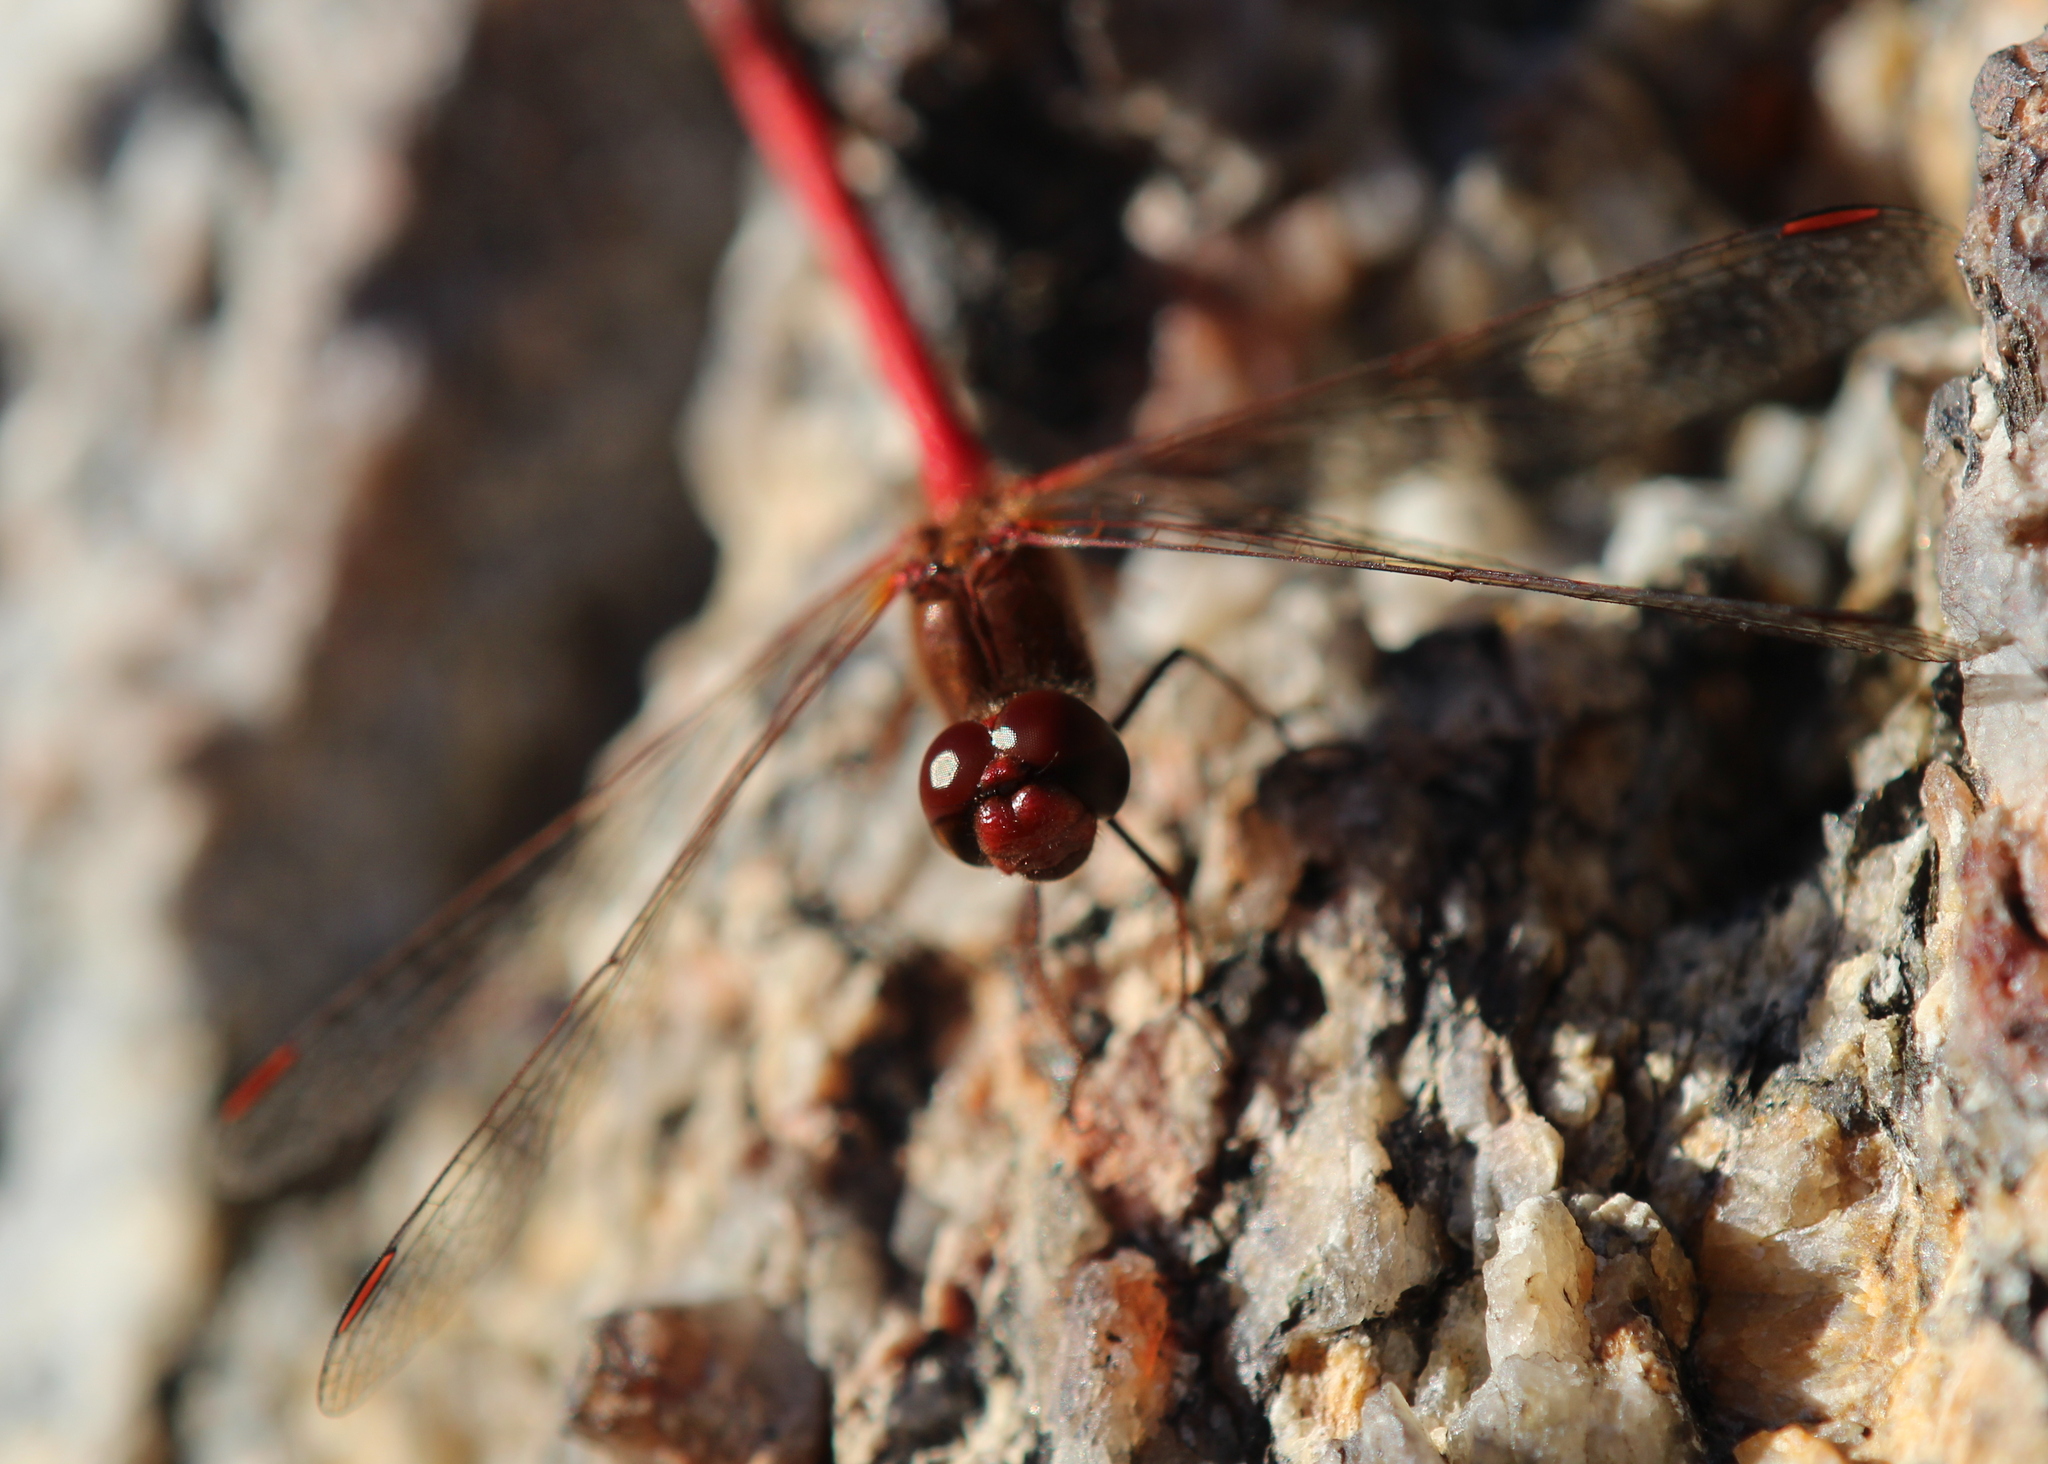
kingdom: Animalia
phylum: Arthropoda
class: Insecta
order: Odonata
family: Libellulidae
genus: Sympetrum
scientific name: Sympetrum vicinum
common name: Autumn meadowhawk
